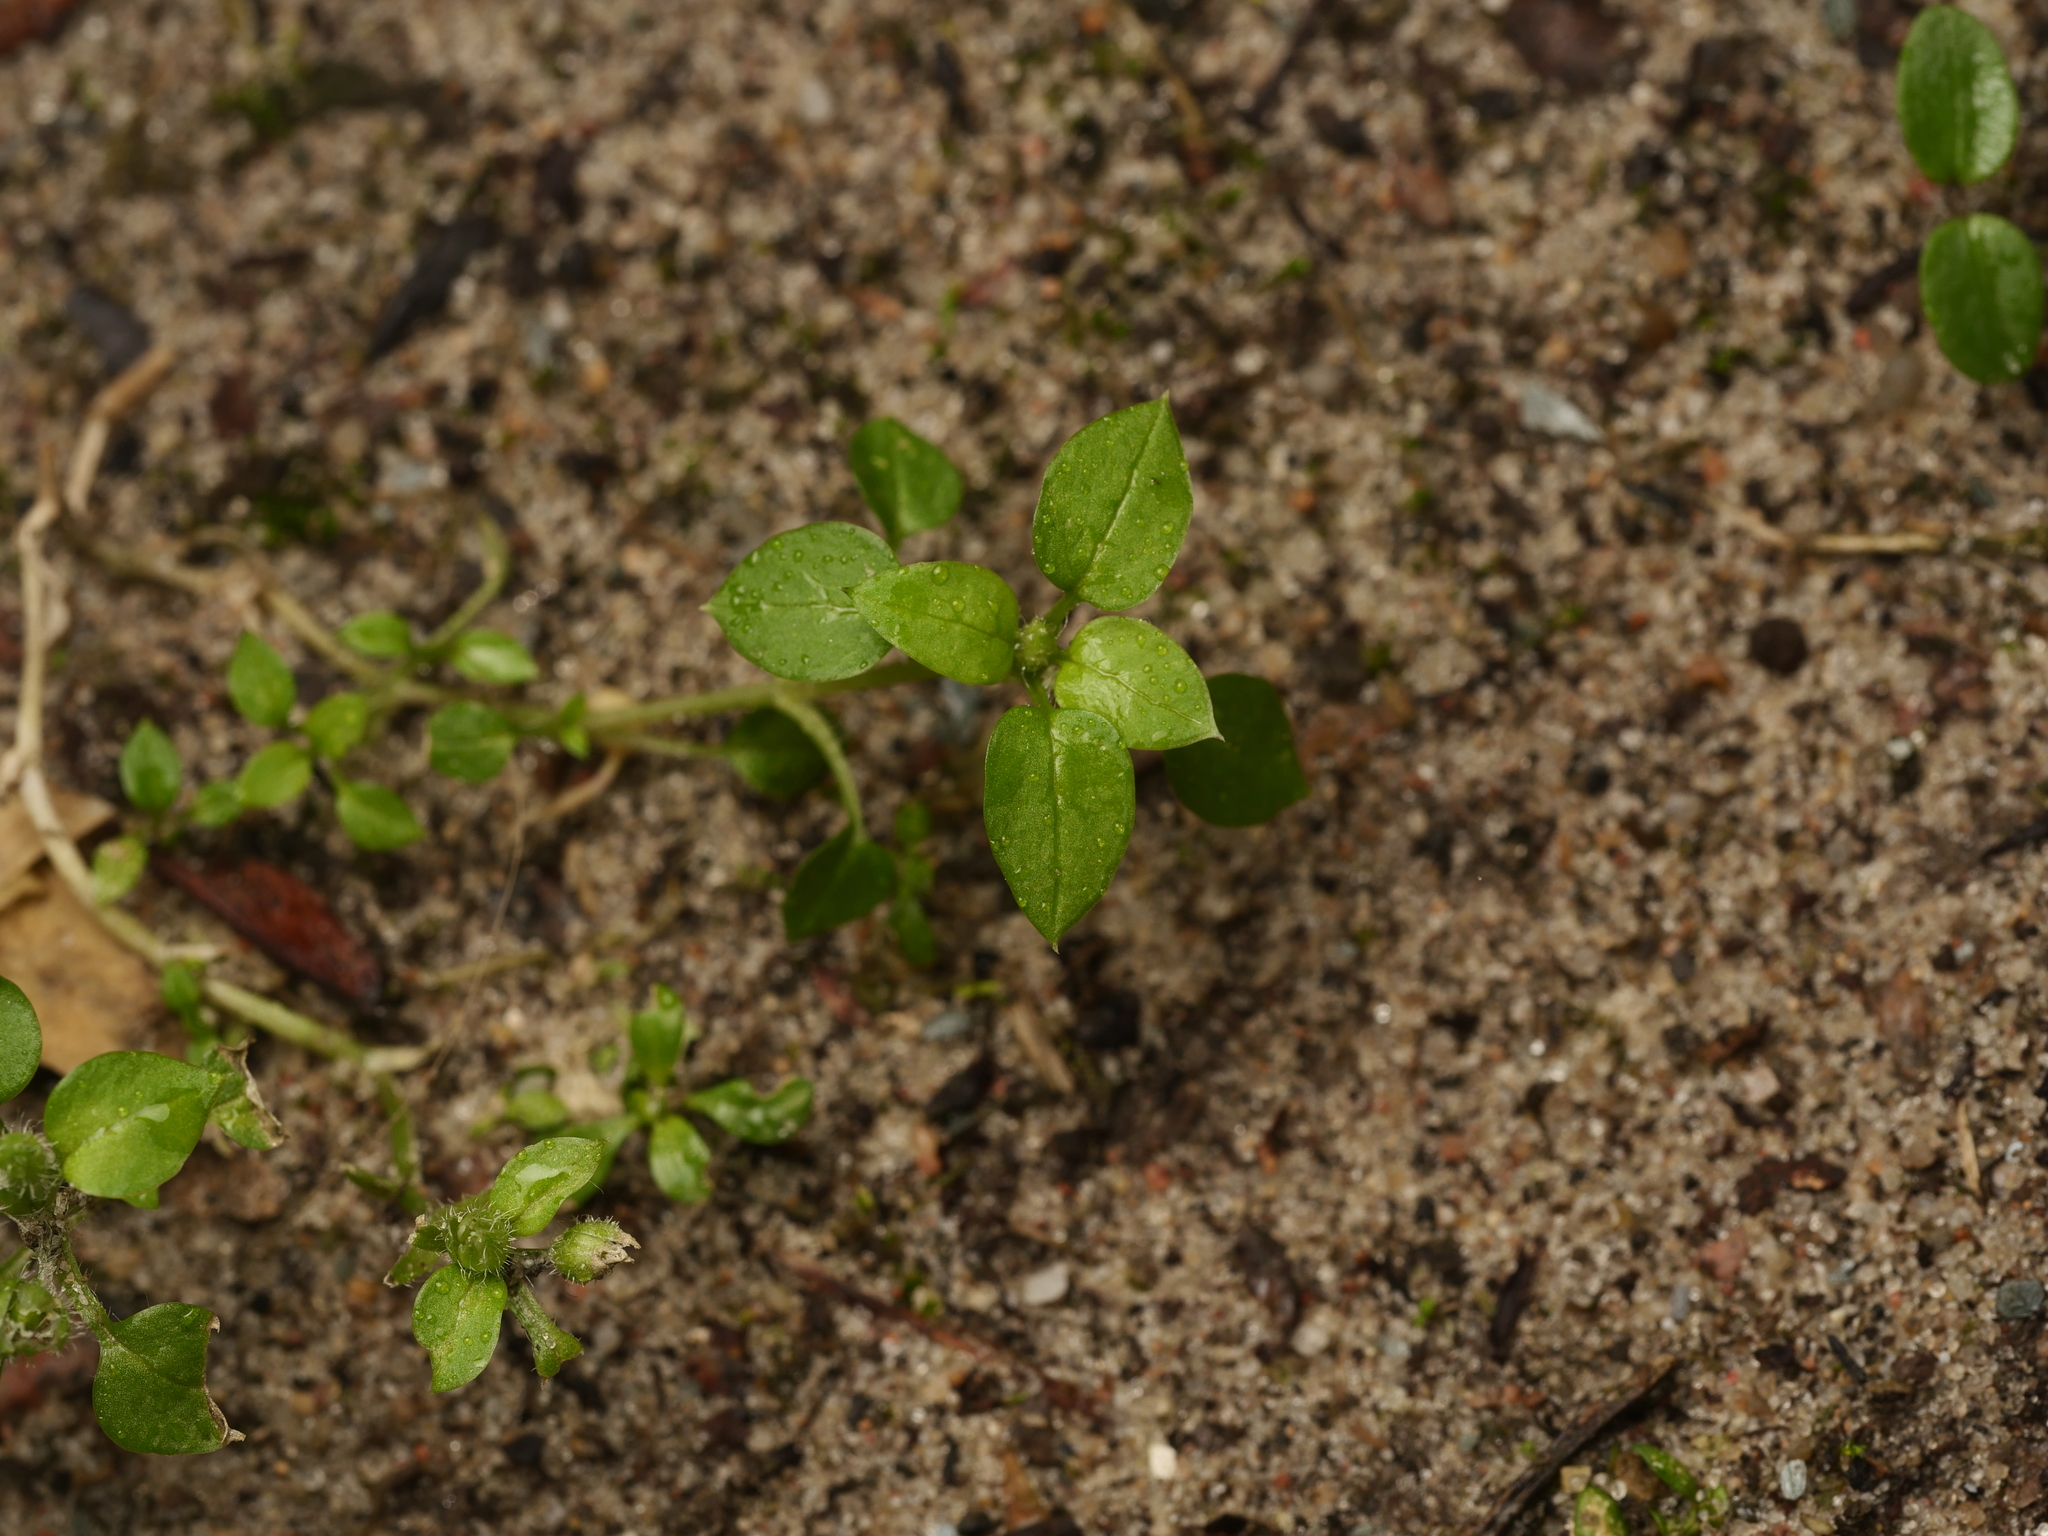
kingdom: Plantae
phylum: Tracheophyta
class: Magnoliopsida
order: Caryophyllales
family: Caryophyllaceae
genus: Stellaria
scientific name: Stellaria media
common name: Common chickweed
